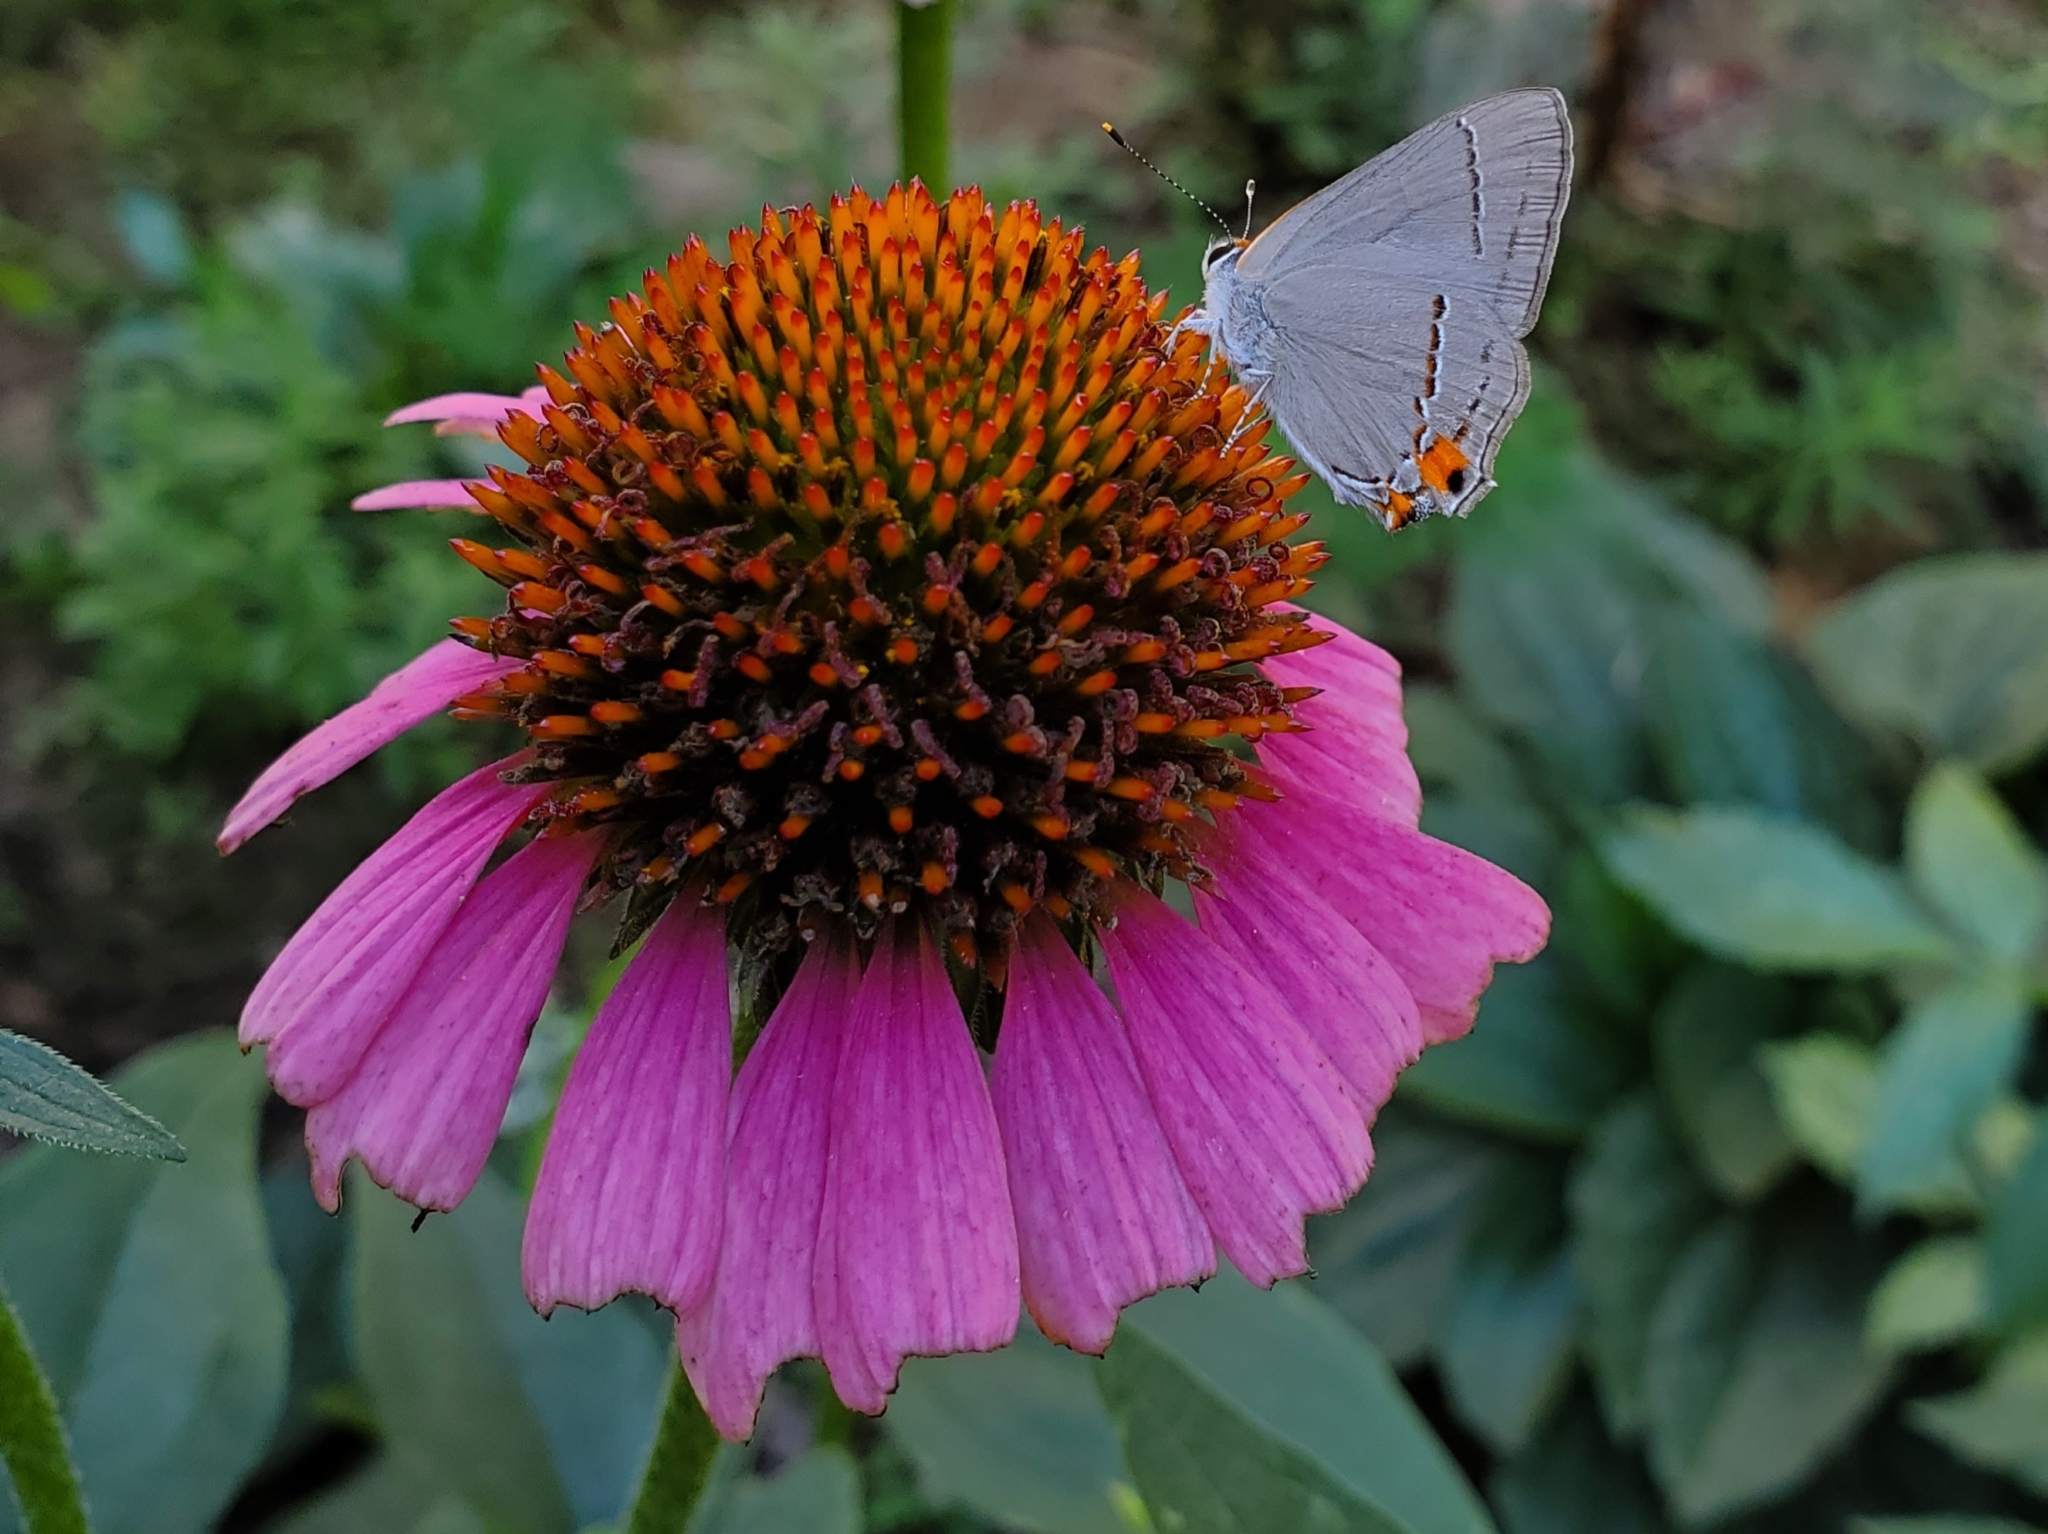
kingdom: Animalia
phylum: Arthropoda
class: Insecta
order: Lepidoptera
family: Lycaenidae
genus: Strymon
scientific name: Strymon melinus
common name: Gray hairstreak
